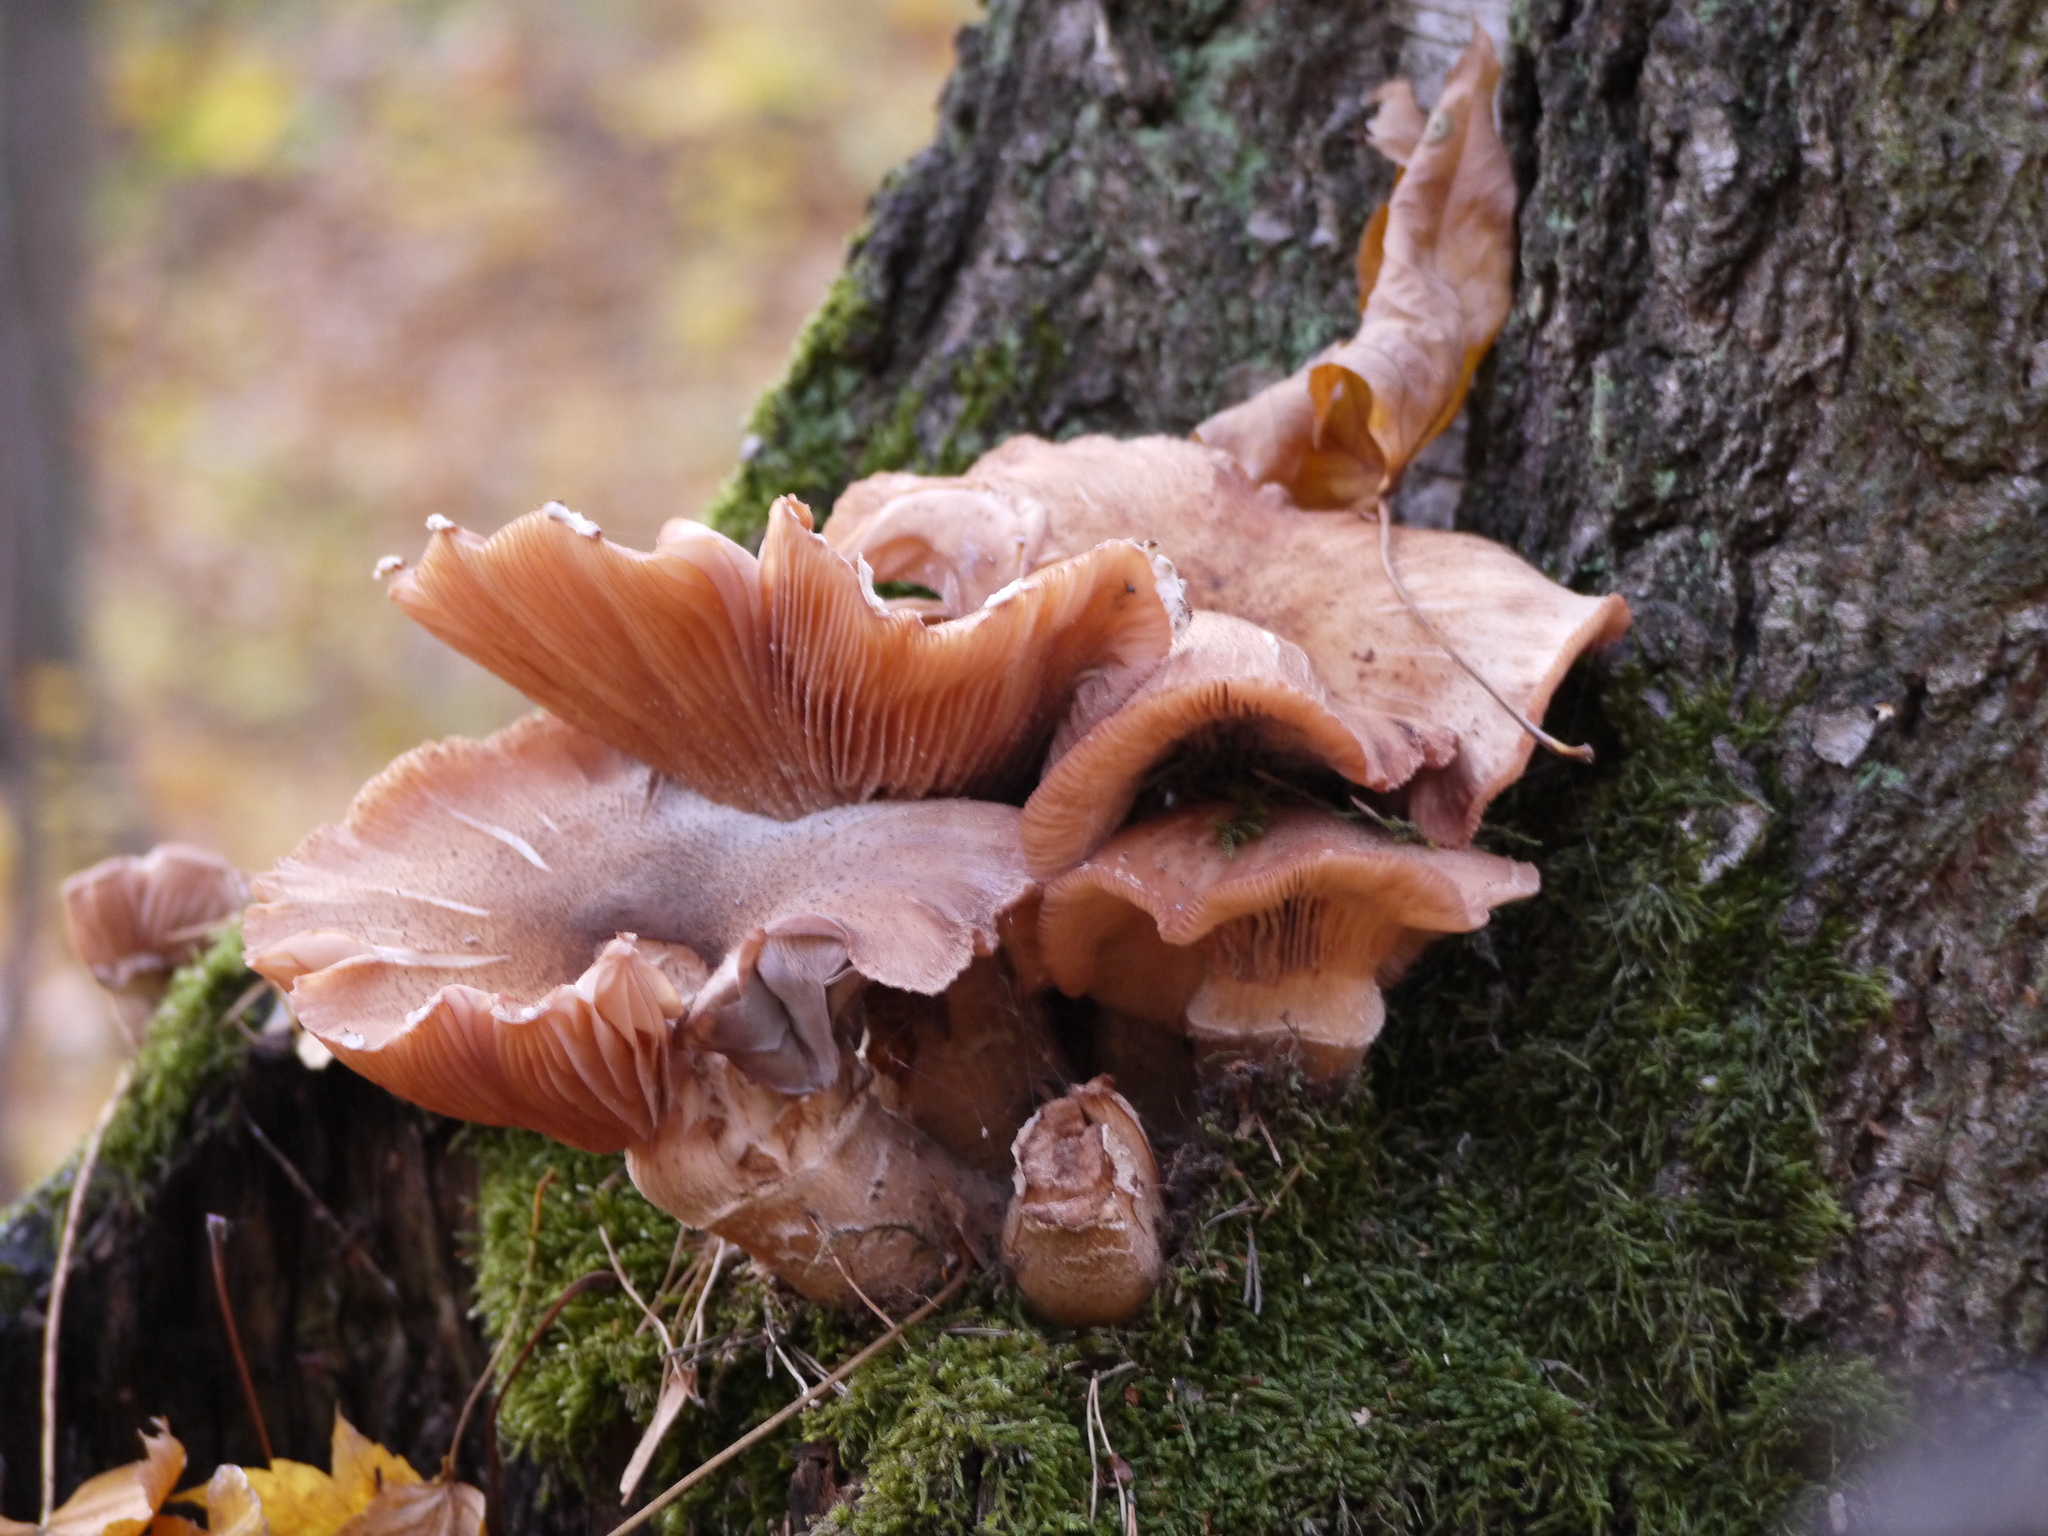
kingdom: Fungi
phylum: Basidiomycota
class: Agaricomycetes
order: Agaricales
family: Physalacriaceae
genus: Armillaria
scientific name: Armillaria mellea
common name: Honey fungus
